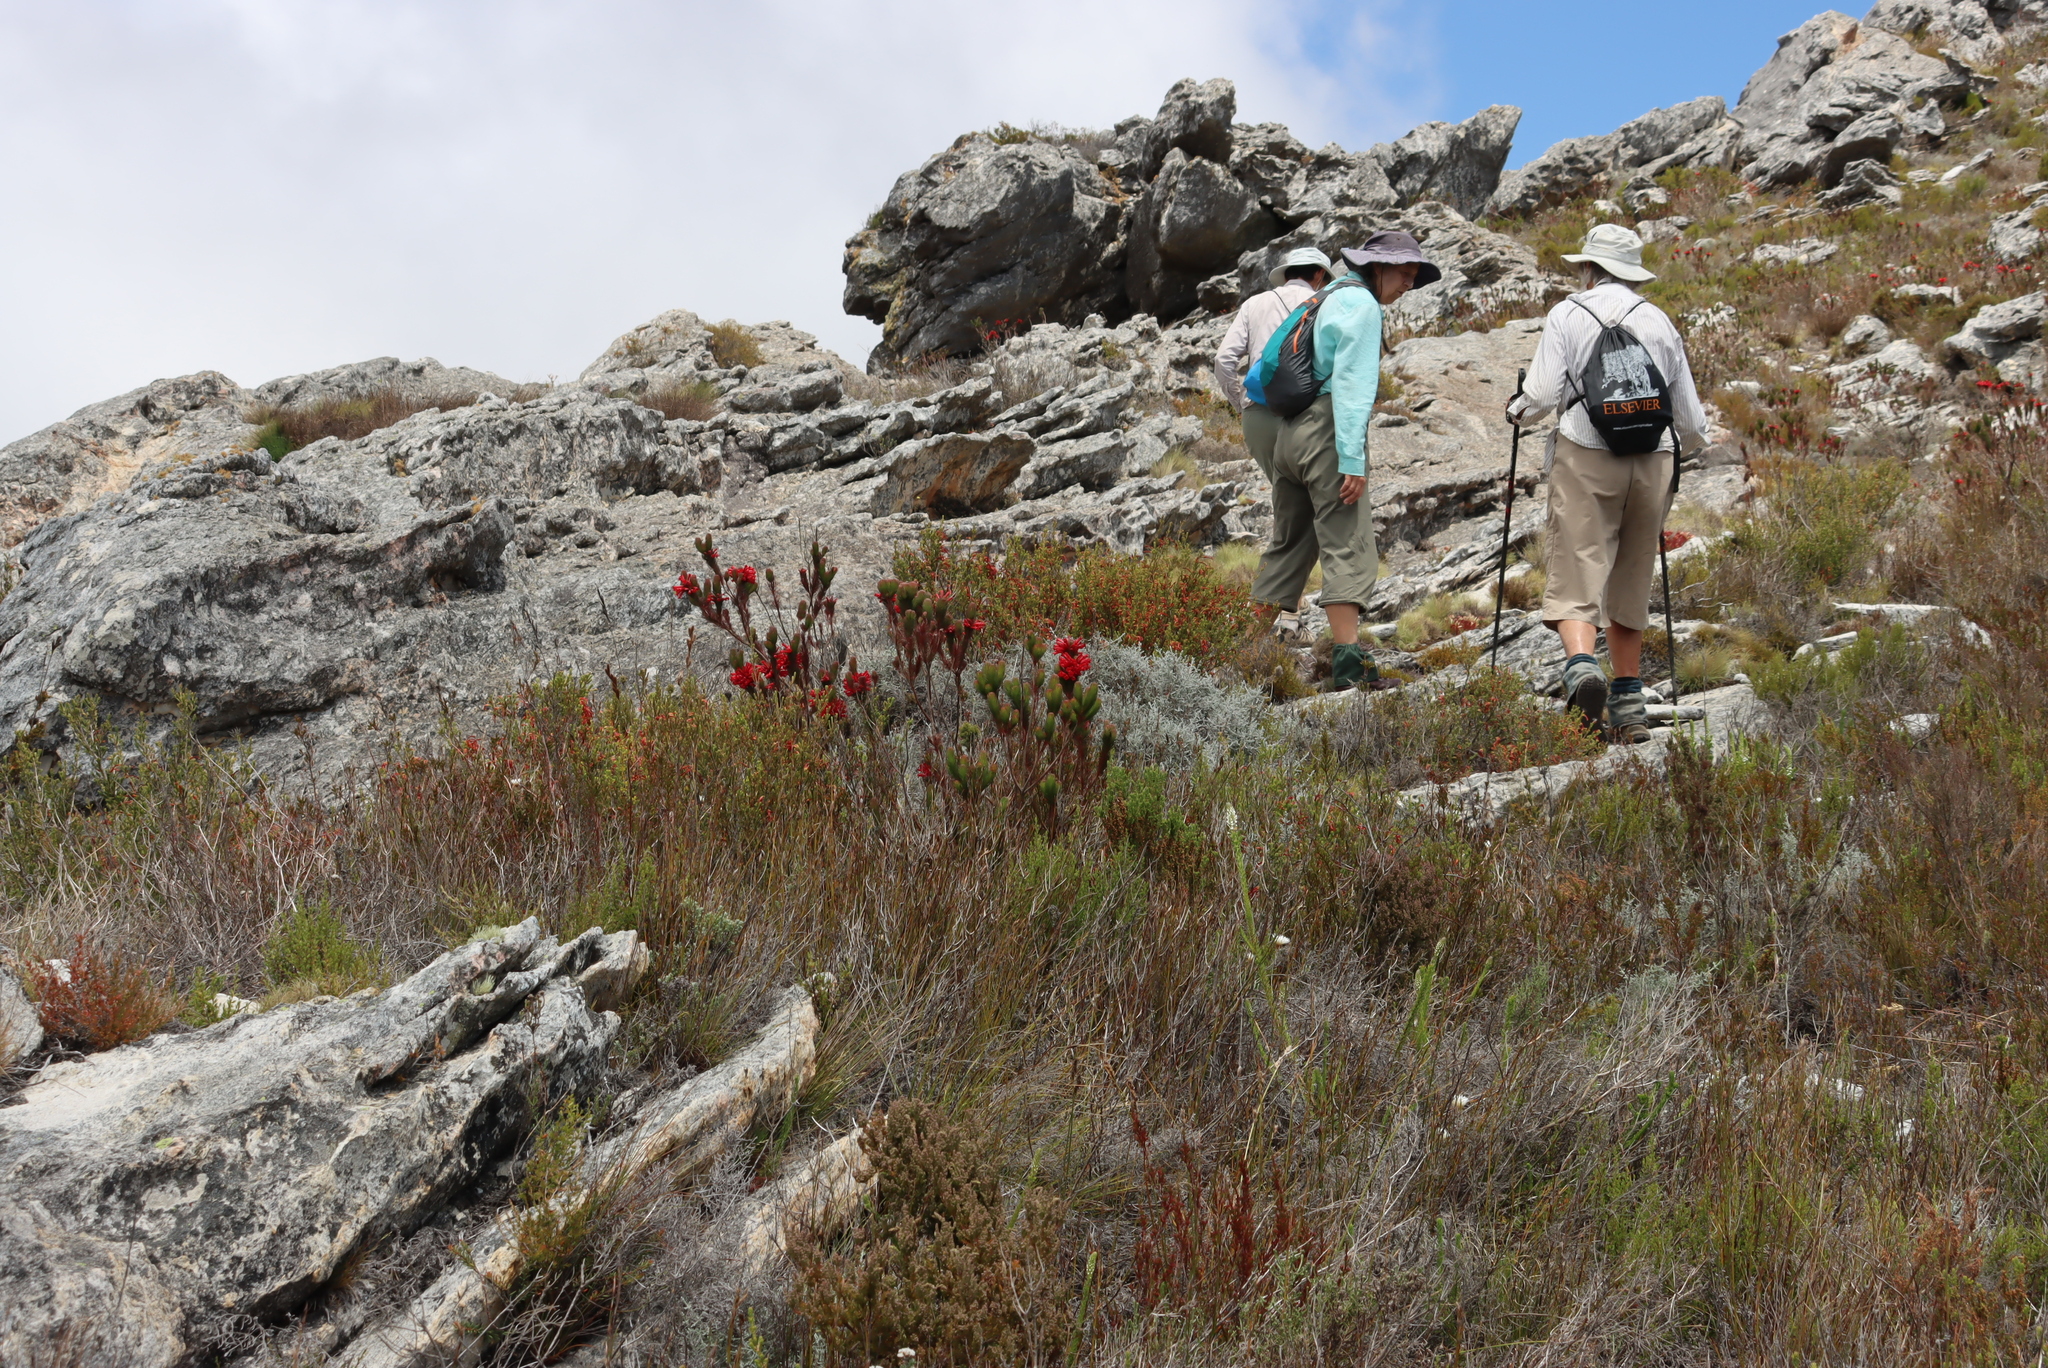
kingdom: Plantae
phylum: Tracheophyta
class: Magnoliopsida
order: Ericales
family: Ericaceae
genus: Erica
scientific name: Erica vestita
